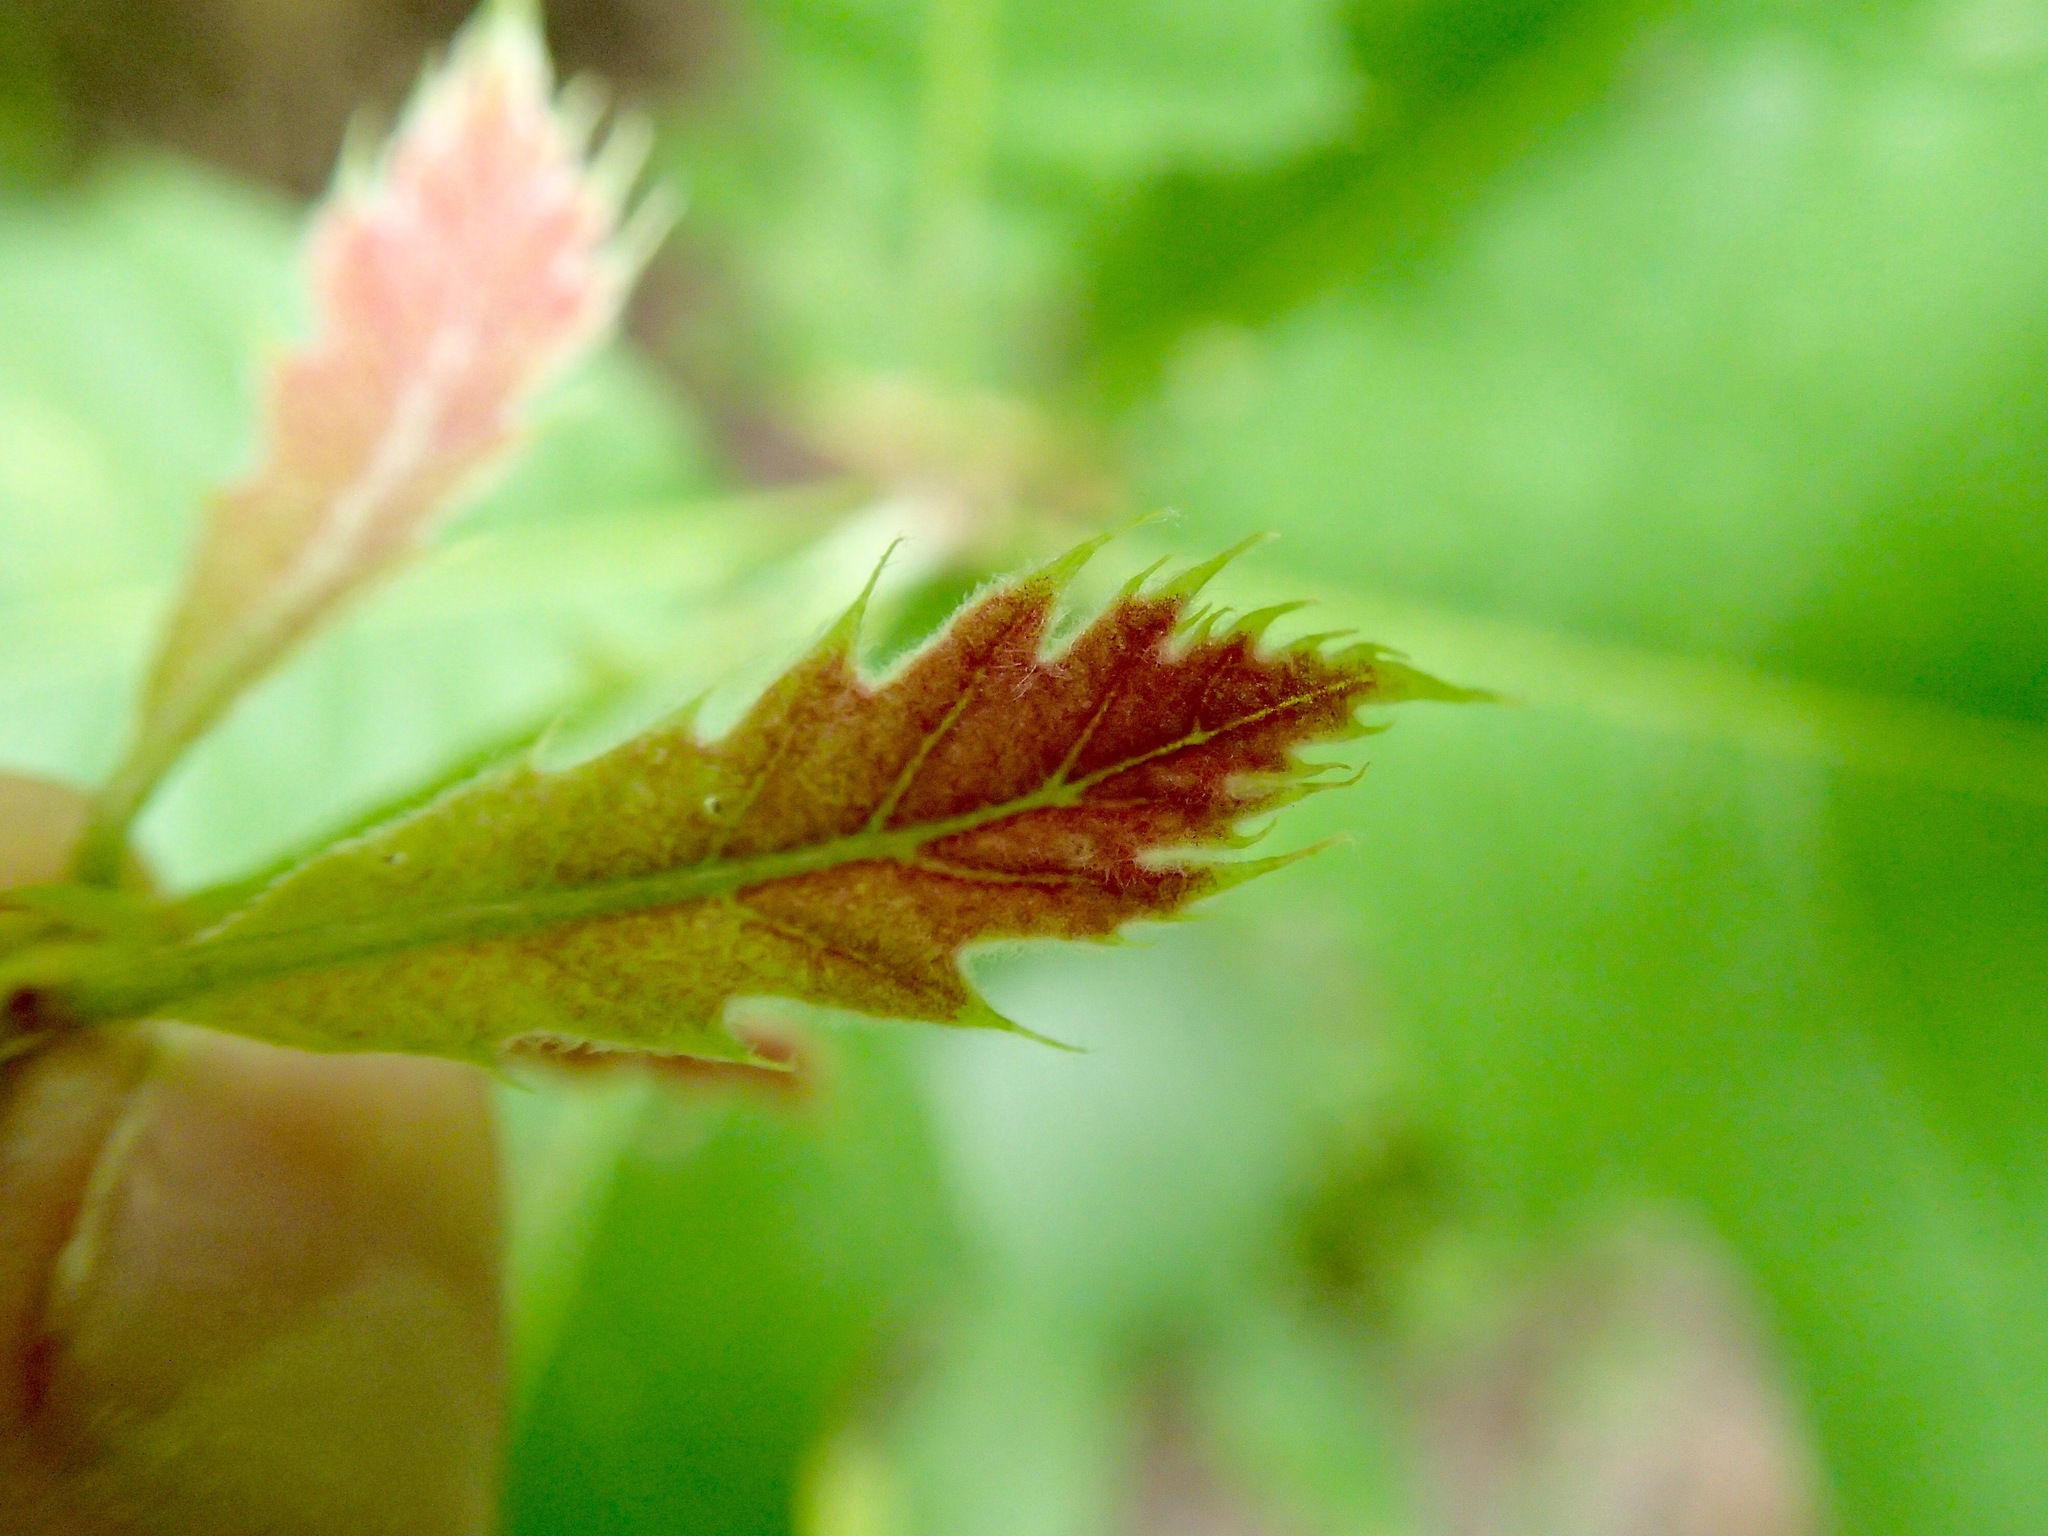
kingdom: Plantae
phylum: Tracheophyta
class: Magnoliopsida
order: Fagales
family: Fagaceae
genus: Quercus
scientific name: Quercus rubra
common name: Red oak
